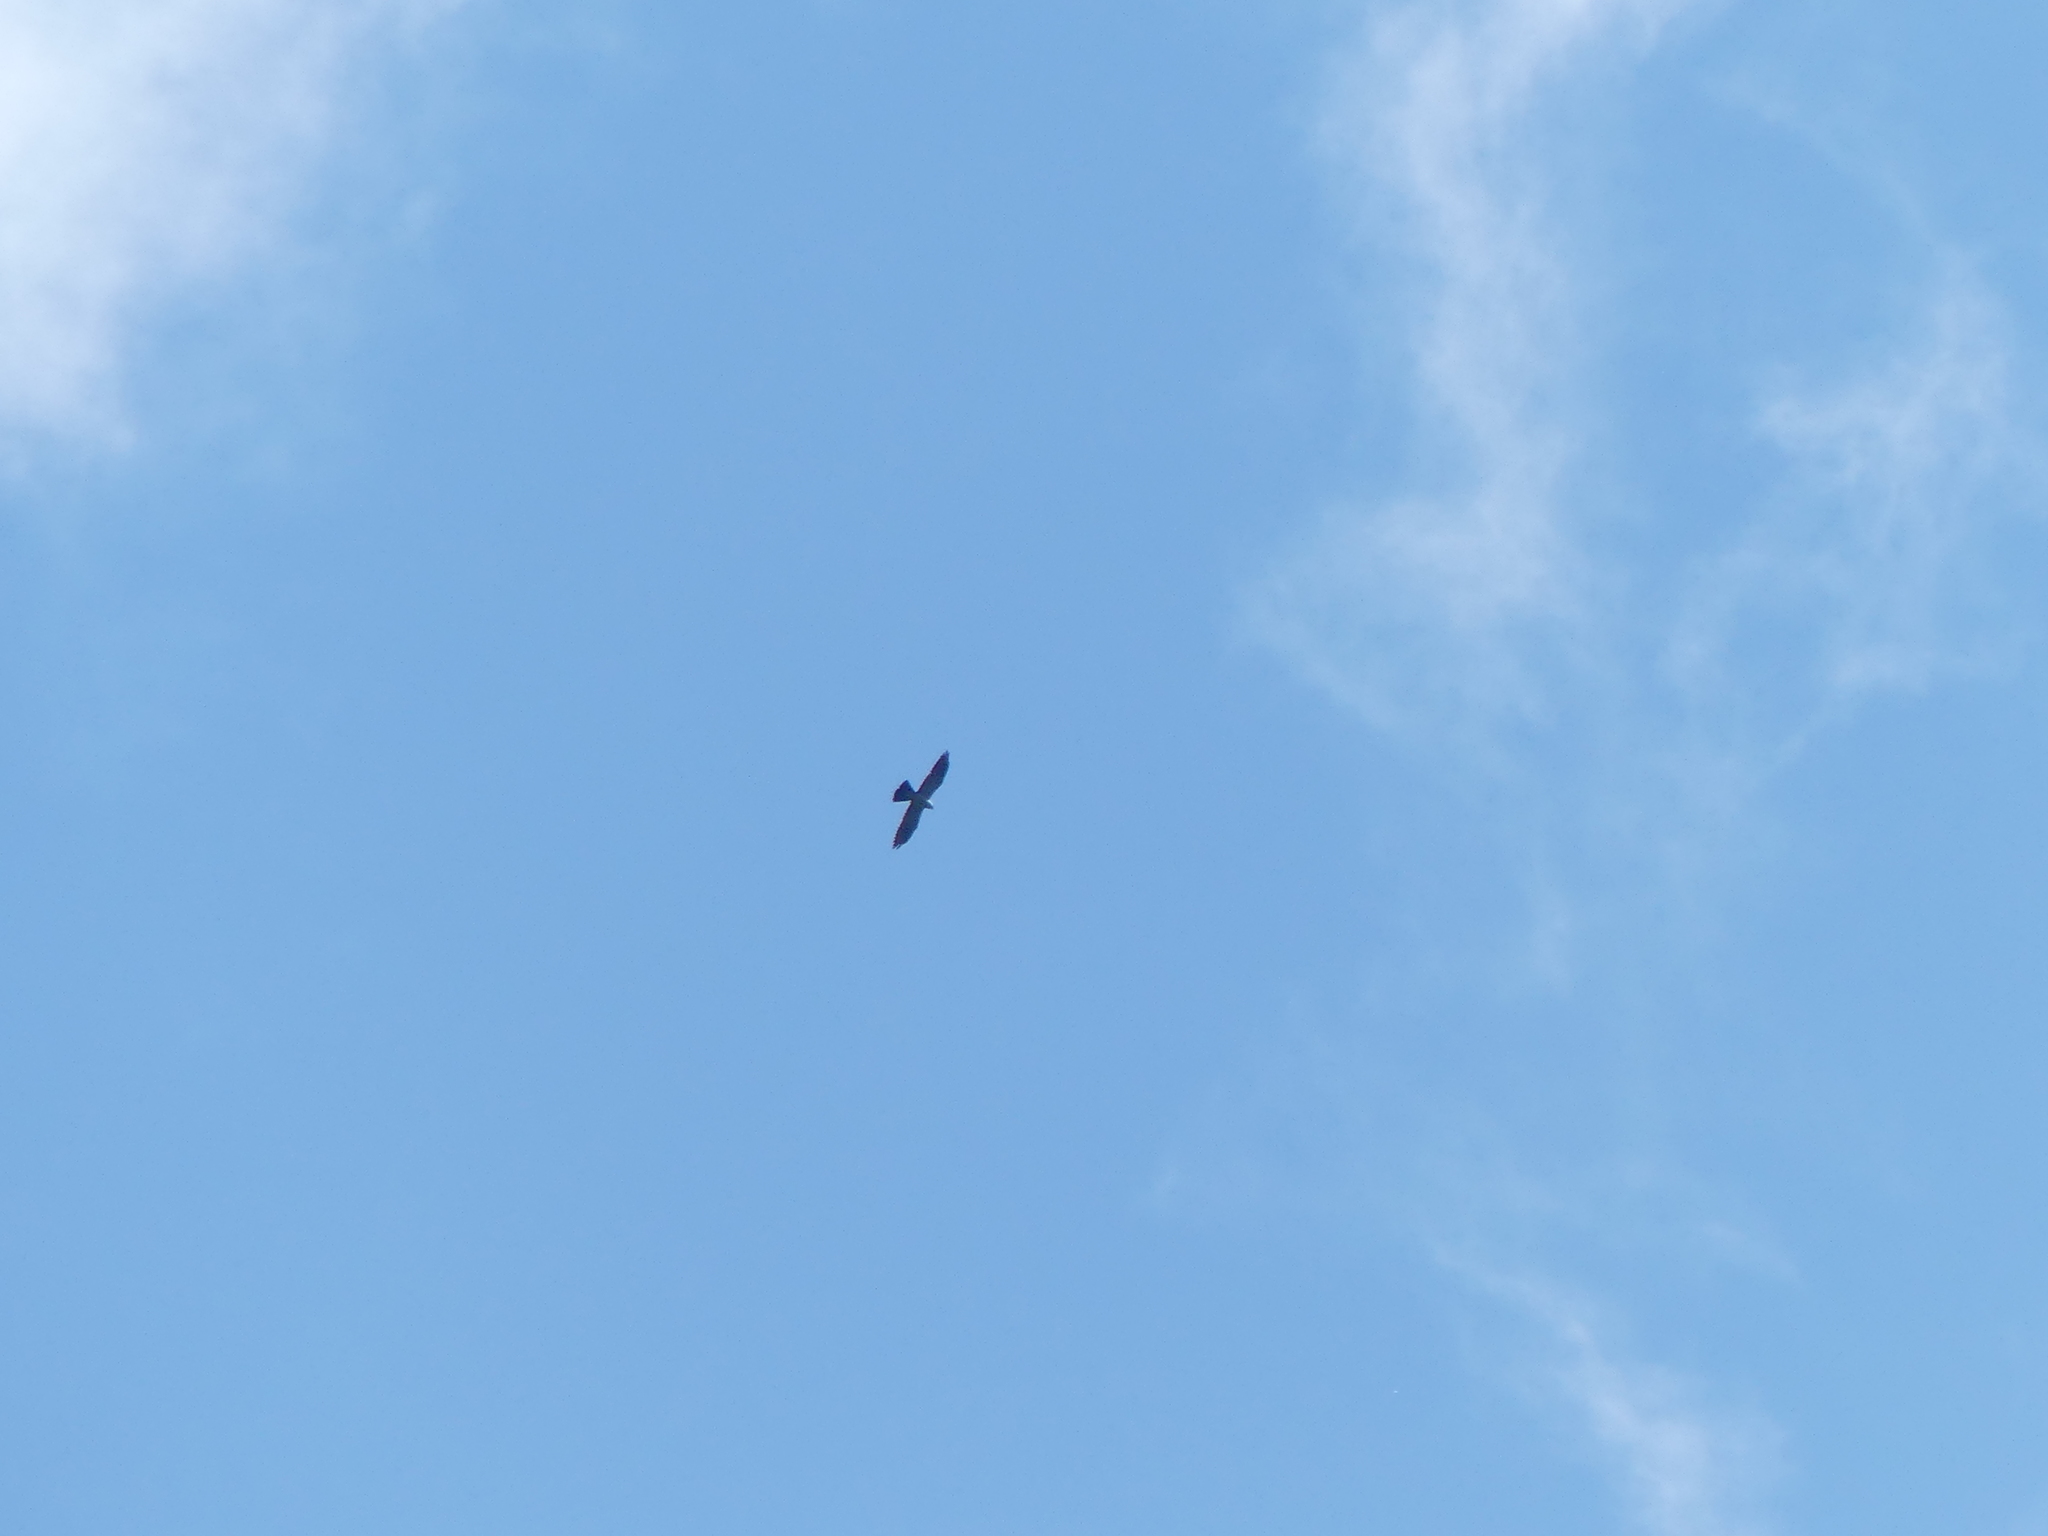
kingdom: Animalia
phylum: Chordata
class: Aves
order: Accipitriformes
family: Accipitridae
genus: Ictinia
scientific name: Ictinia mississippiensis
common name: Mississippi kite
